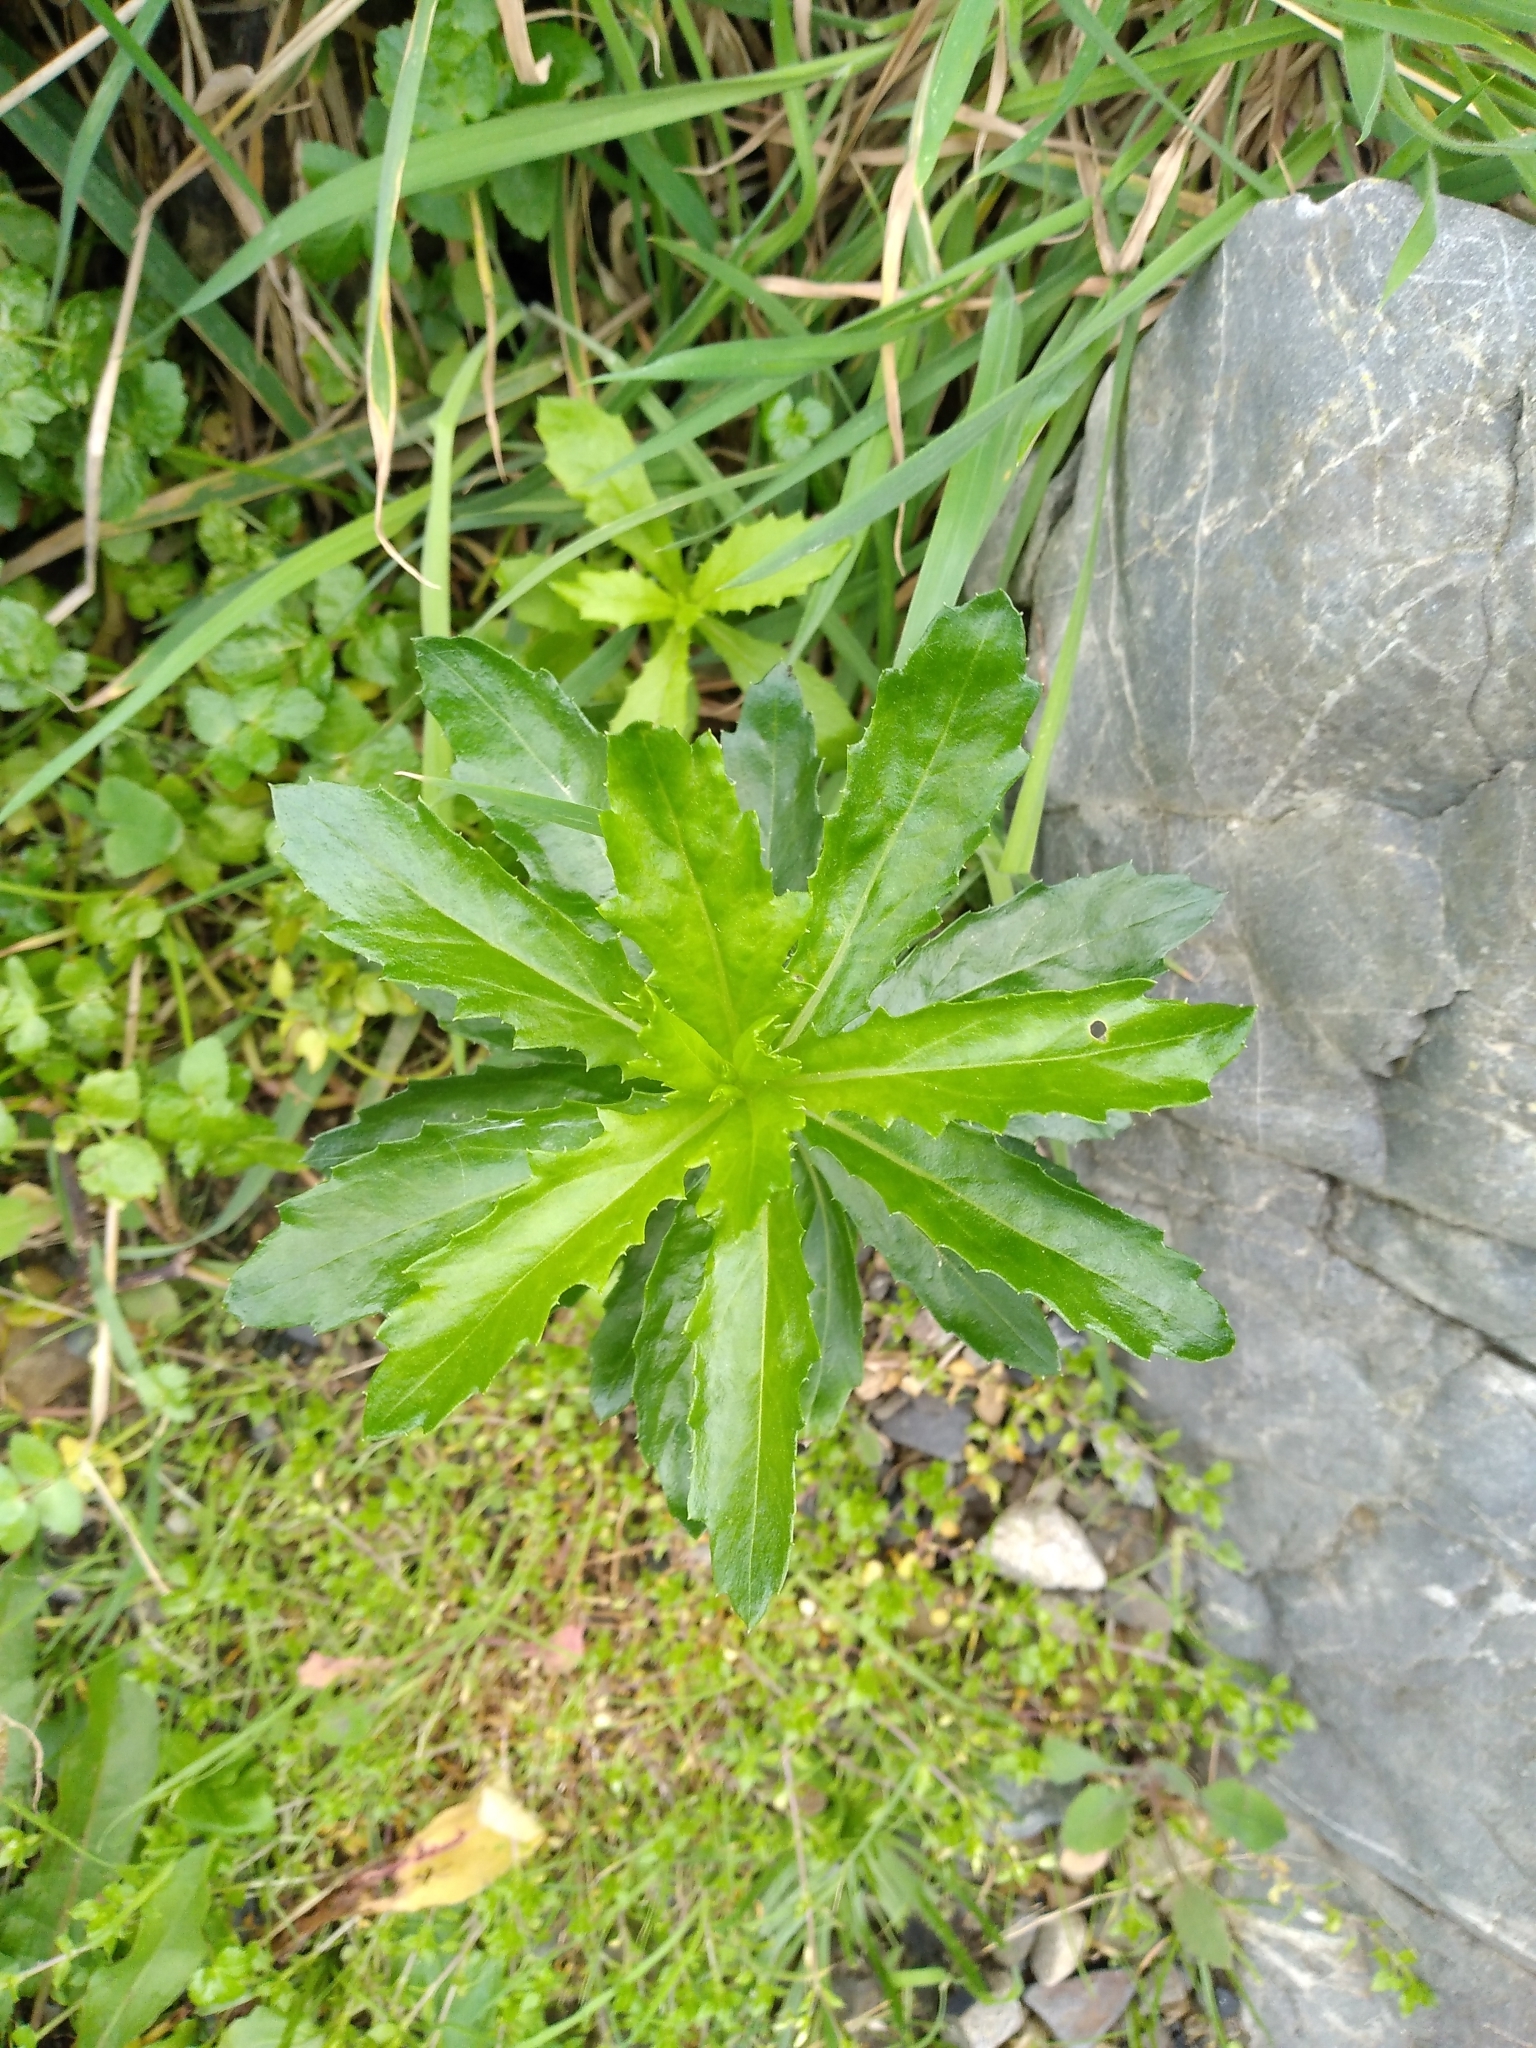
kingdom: Plantae
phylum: Tracheophyta
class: Magnoliopsida
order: Asterales
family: Asteraceae
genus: Senecio
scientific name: Senecio glastifolius
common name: Woad-leaved ragwort
